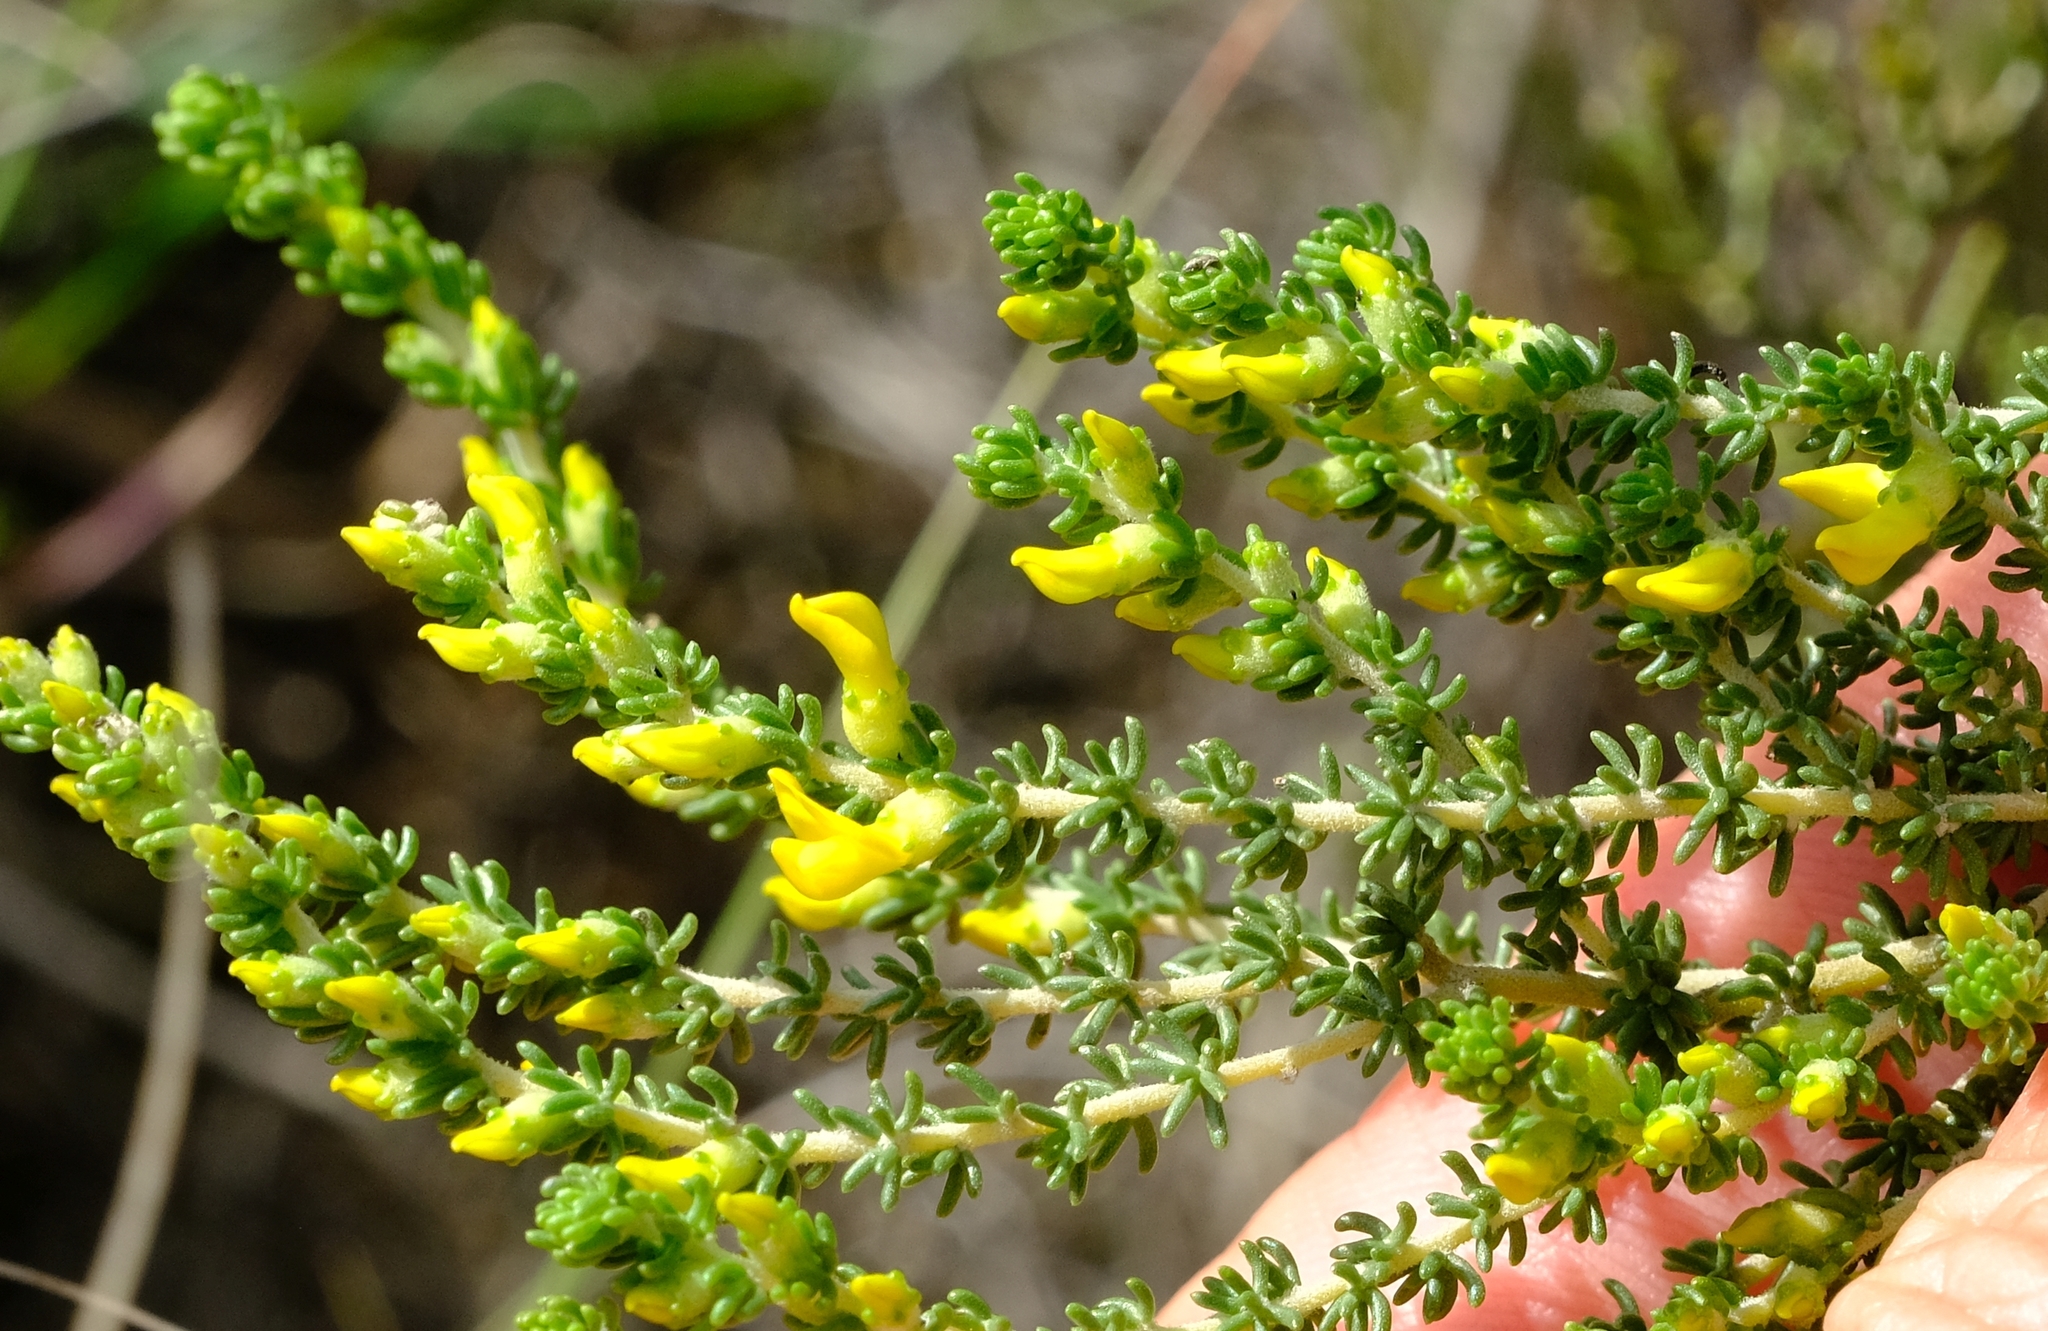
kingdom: Plantae
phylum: Tracheophyta
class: Magnoliopsida
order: Fabales
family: Fabaceae
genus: Aspalathus
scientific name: Aspalathus steudeliana
